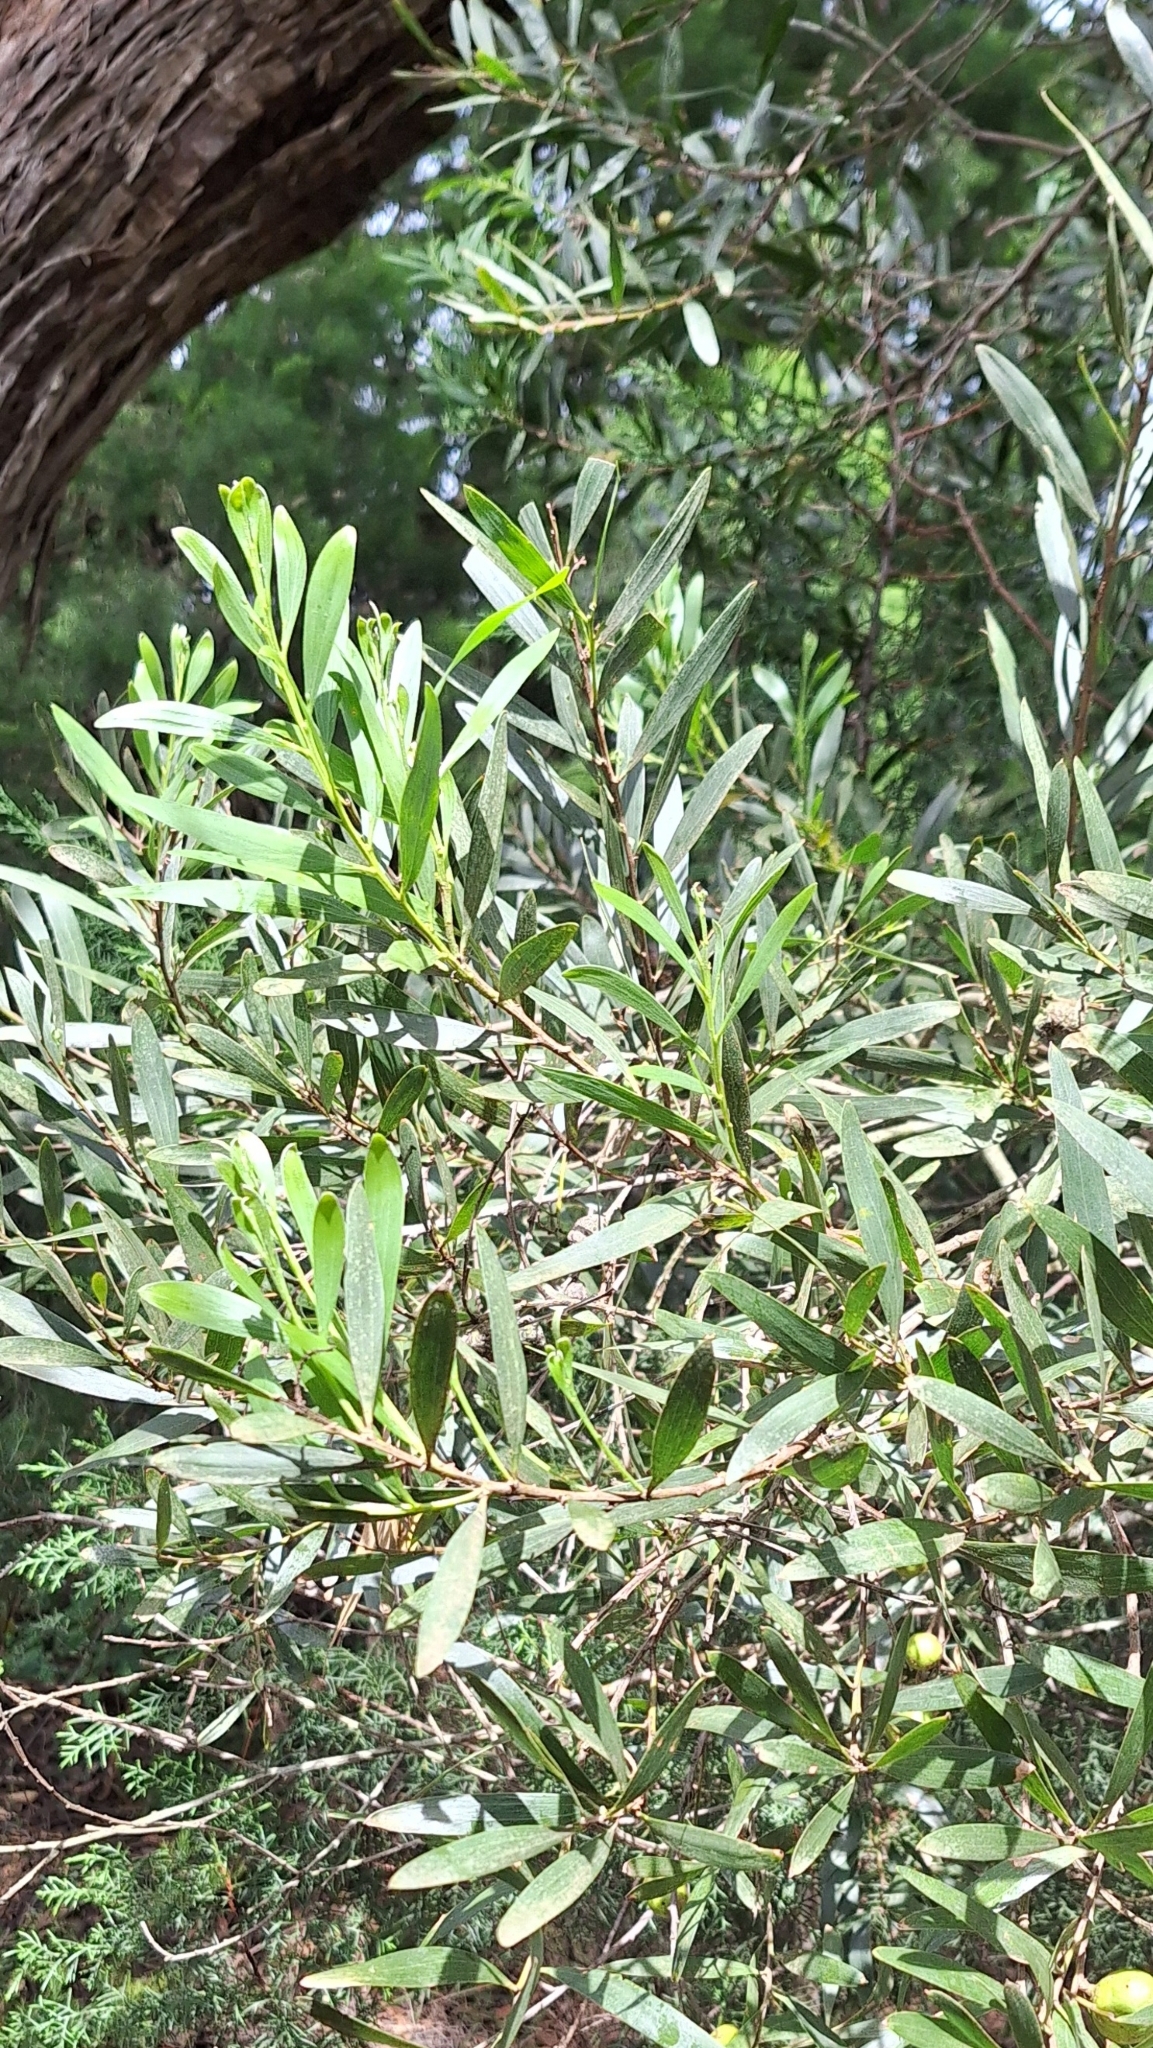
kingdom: Plantae
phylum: Tracheophyta
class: Magnoliopsida
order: Fabales
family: Fabaceae
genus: Acacia
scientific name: Acacia longifolia
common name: Sydney golden wattle
